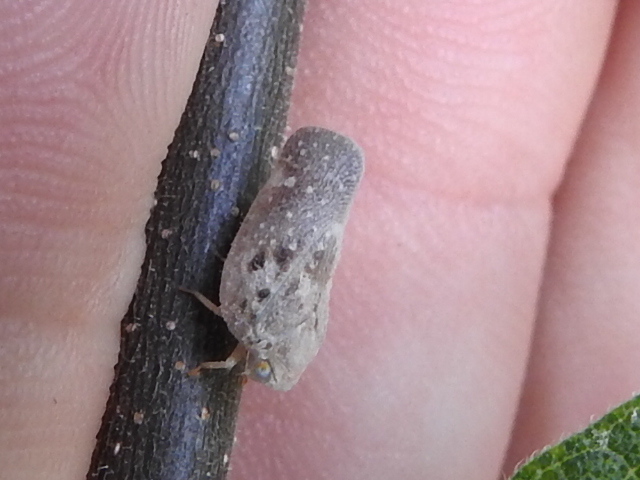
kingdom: Animalia
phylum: Arthropoda
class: Insecta
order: Hemiptera
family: Flatidae
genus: Metcalfa
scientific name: Metcalfa pruinosa
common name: Citrus flatid planthopper
